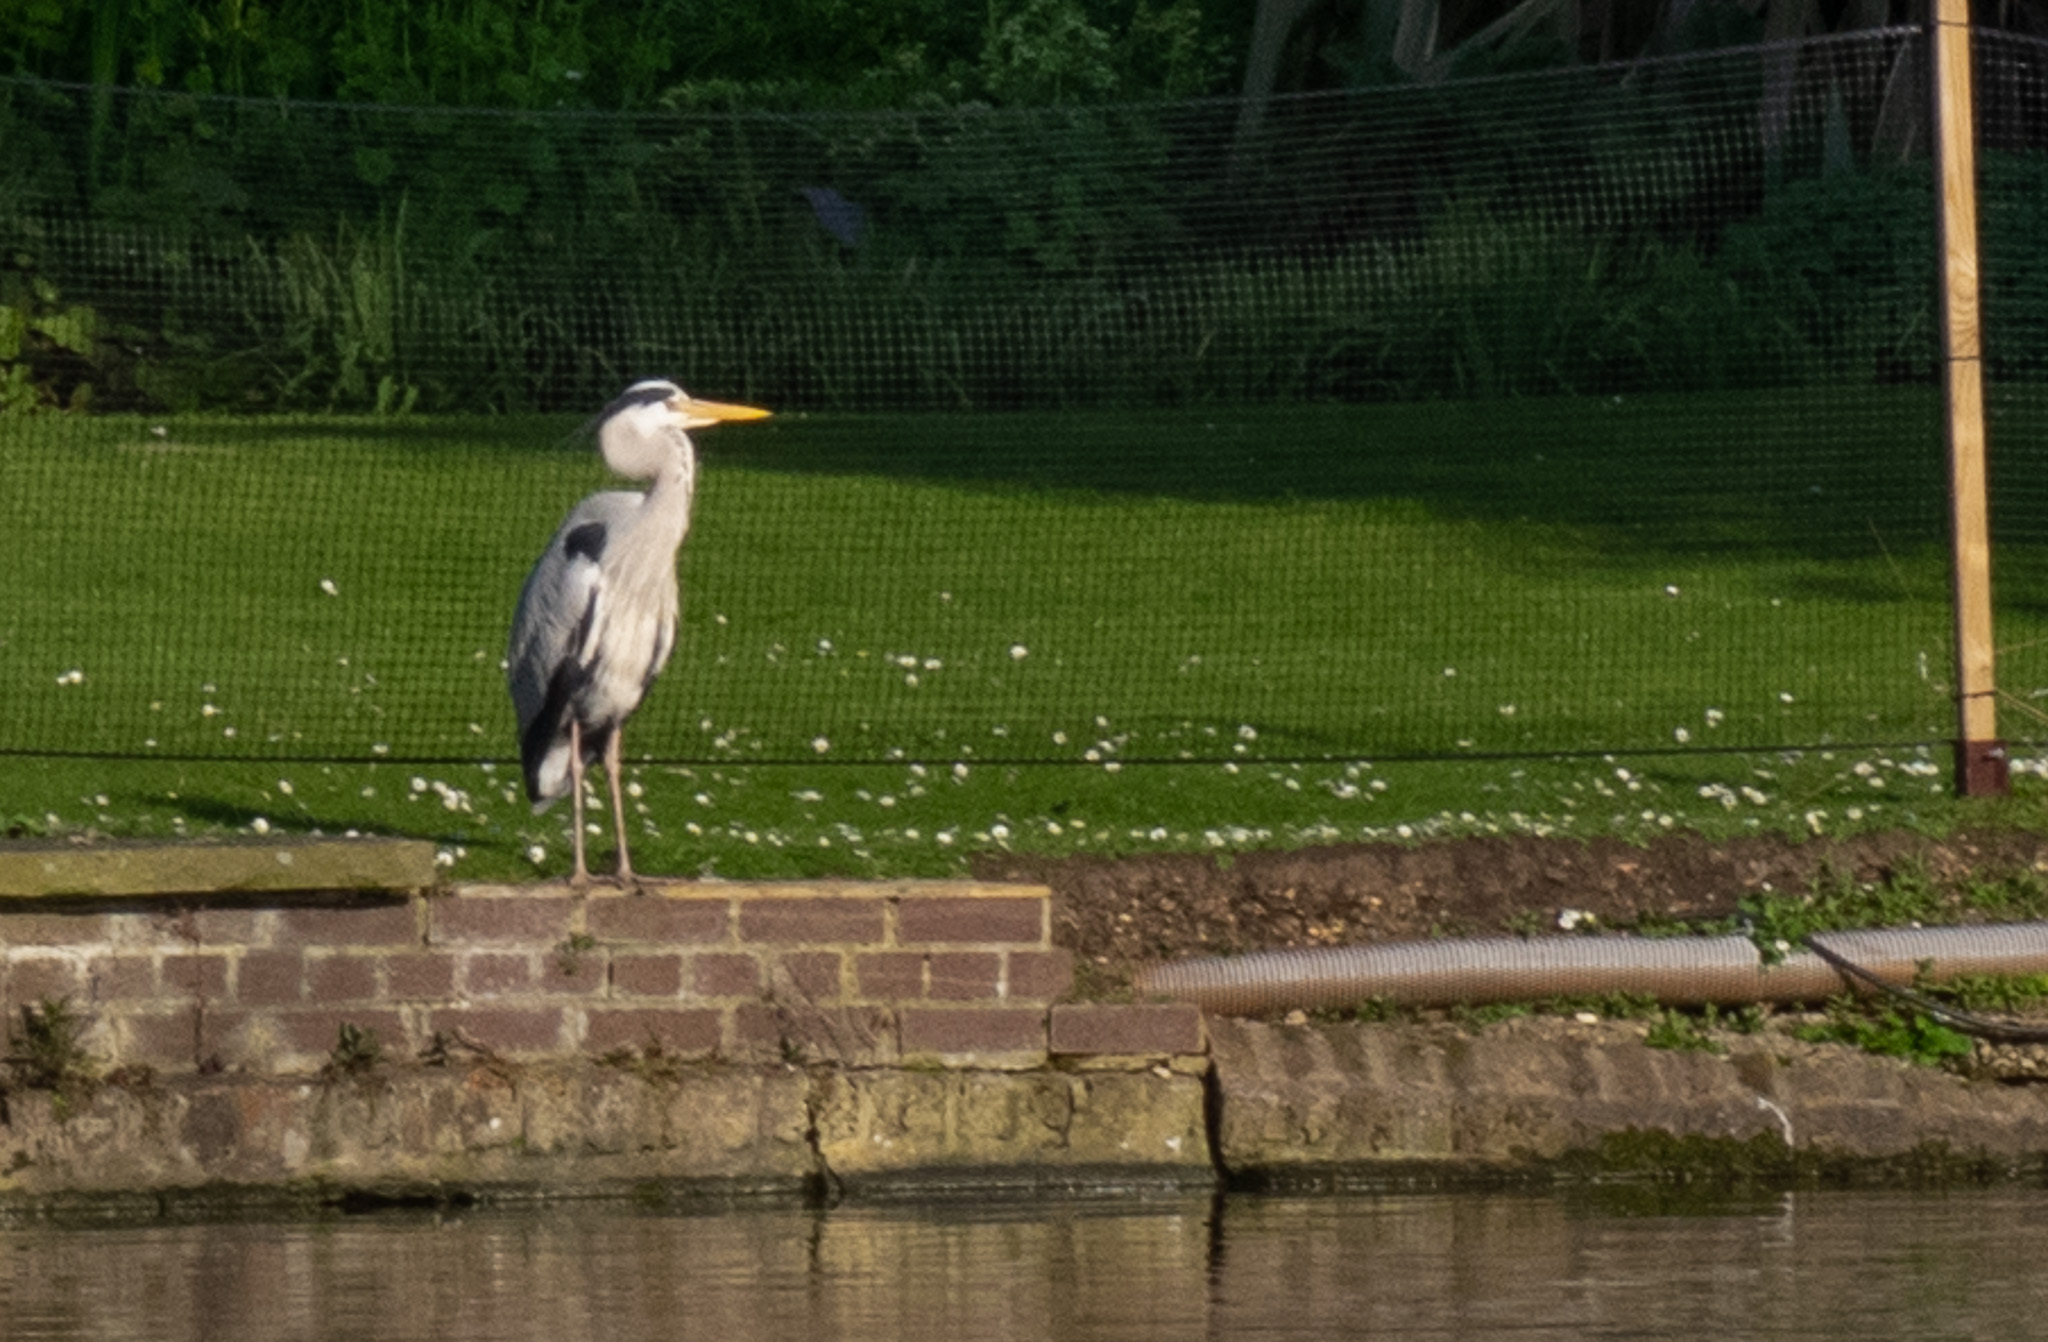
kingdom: Animalia
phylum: Chordata
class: Aves
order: Pelecaniformes
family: Ardeidae
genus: Ardea
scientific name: Ardea cinerea
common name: Grey heron
